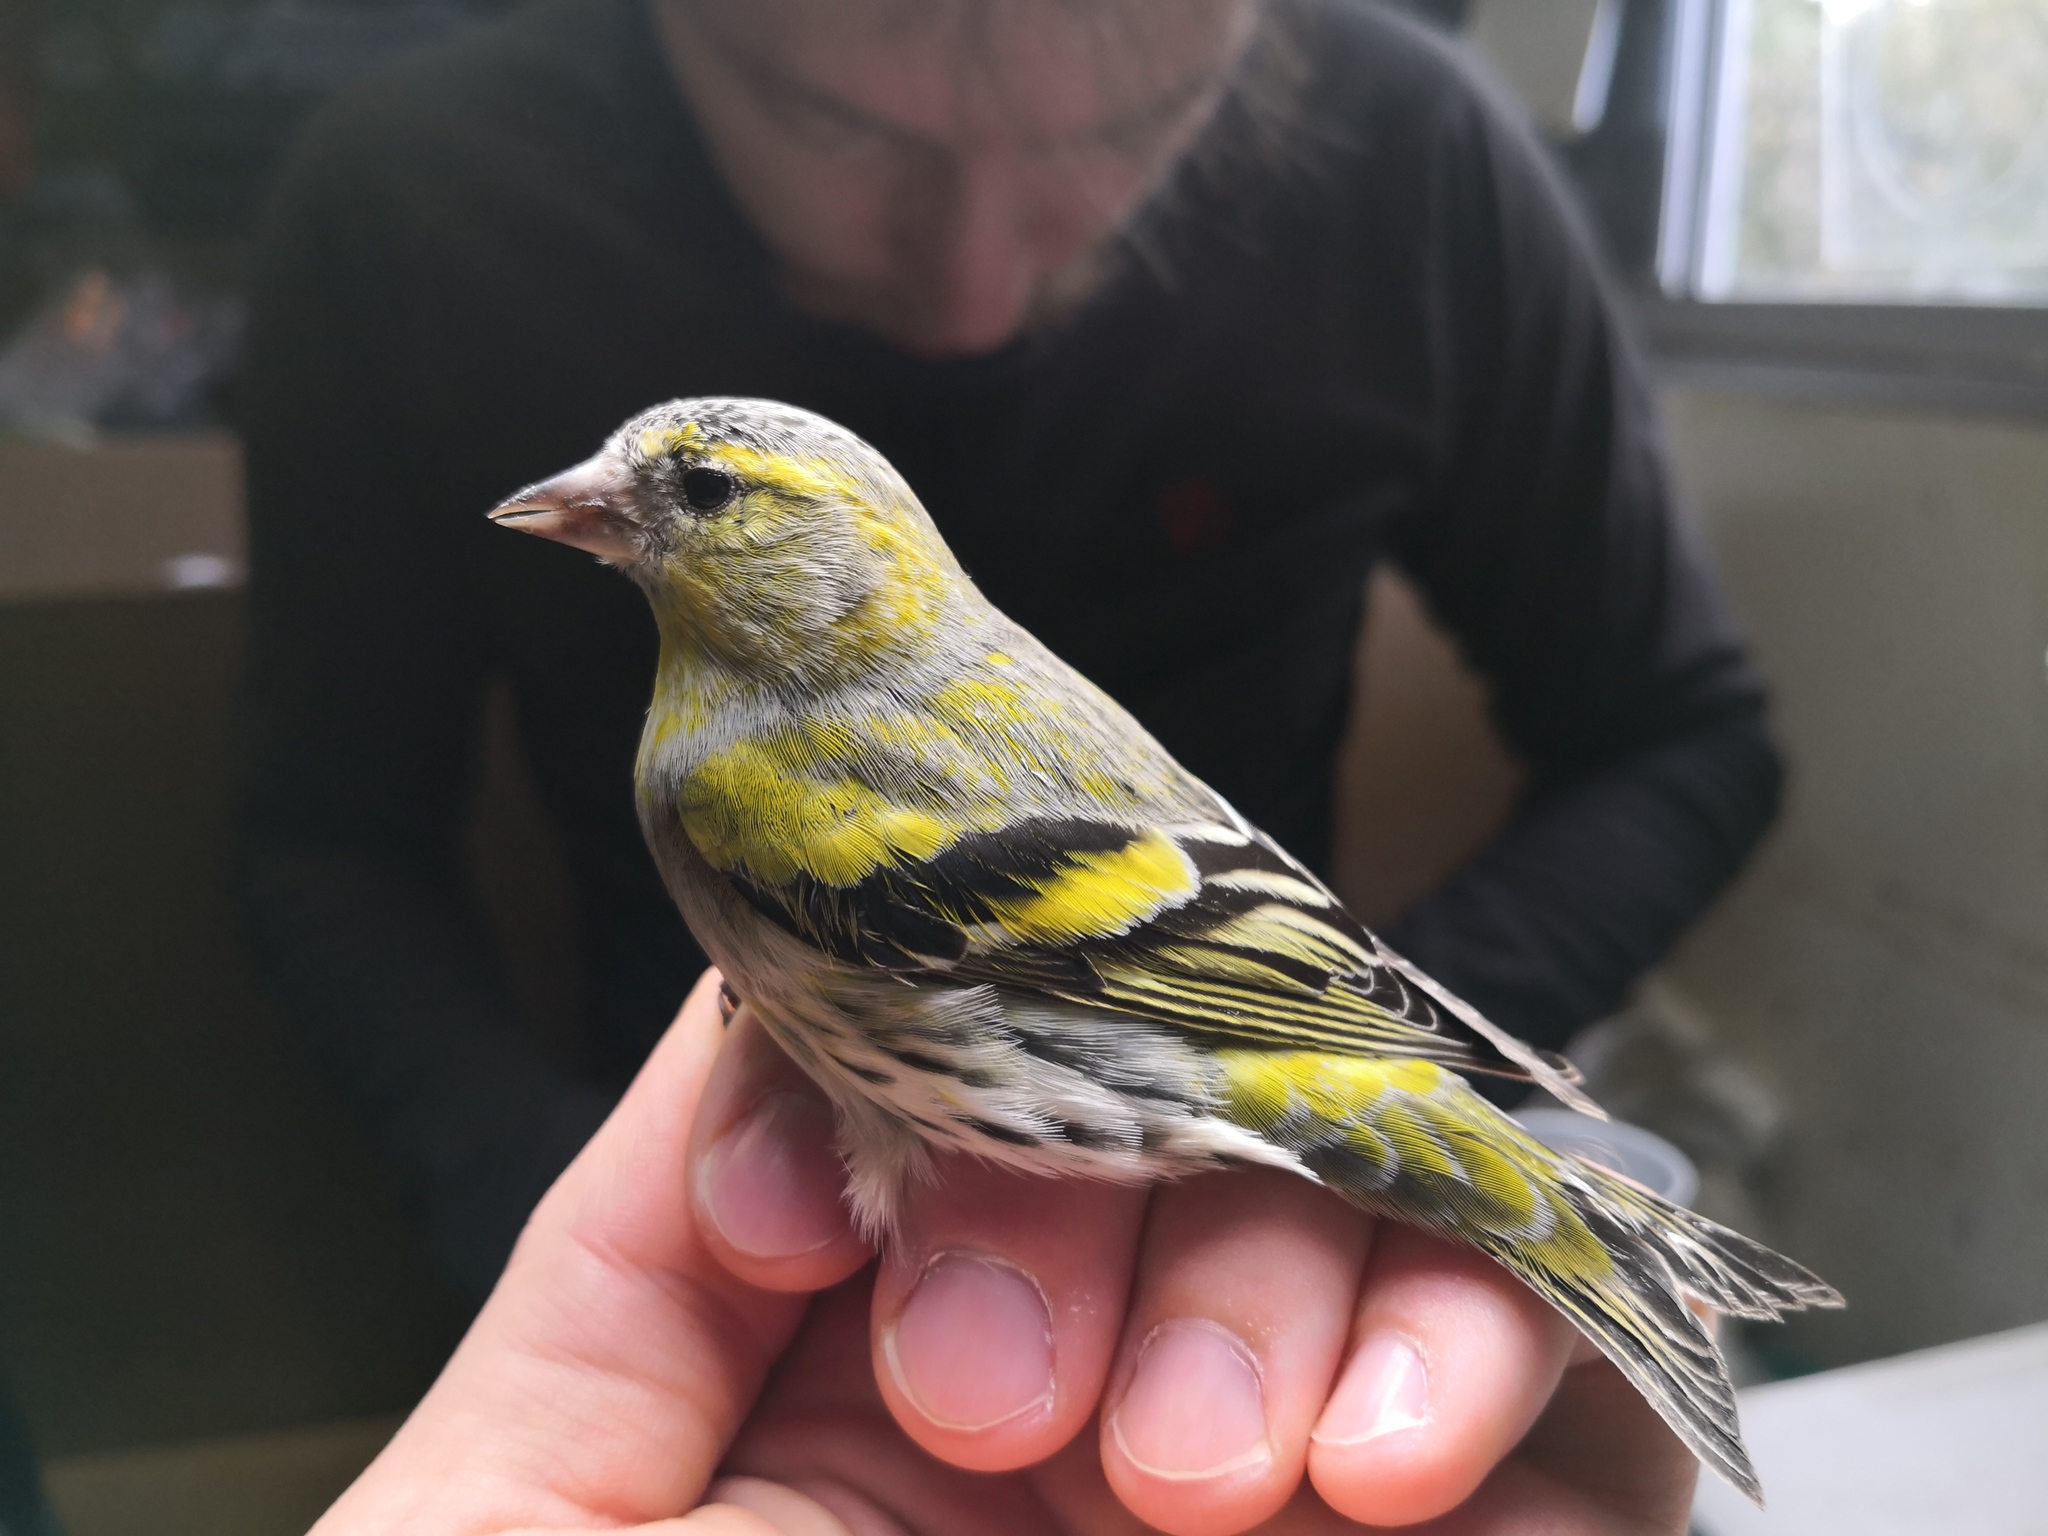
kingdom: Animalia
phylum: Chordata
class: Aves
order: Passeriformes
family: Fringillidae
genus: Spinus
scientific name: Spinus spinus
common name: Eurasian siskin
